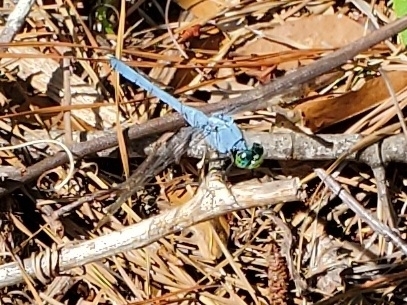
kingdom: Animalia
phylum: Arthropoda
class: Insecta
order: Odonata
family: Libellulidae
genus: Erythemis
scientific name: Erythemis simplicicollis
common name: Eastern pondhawk
